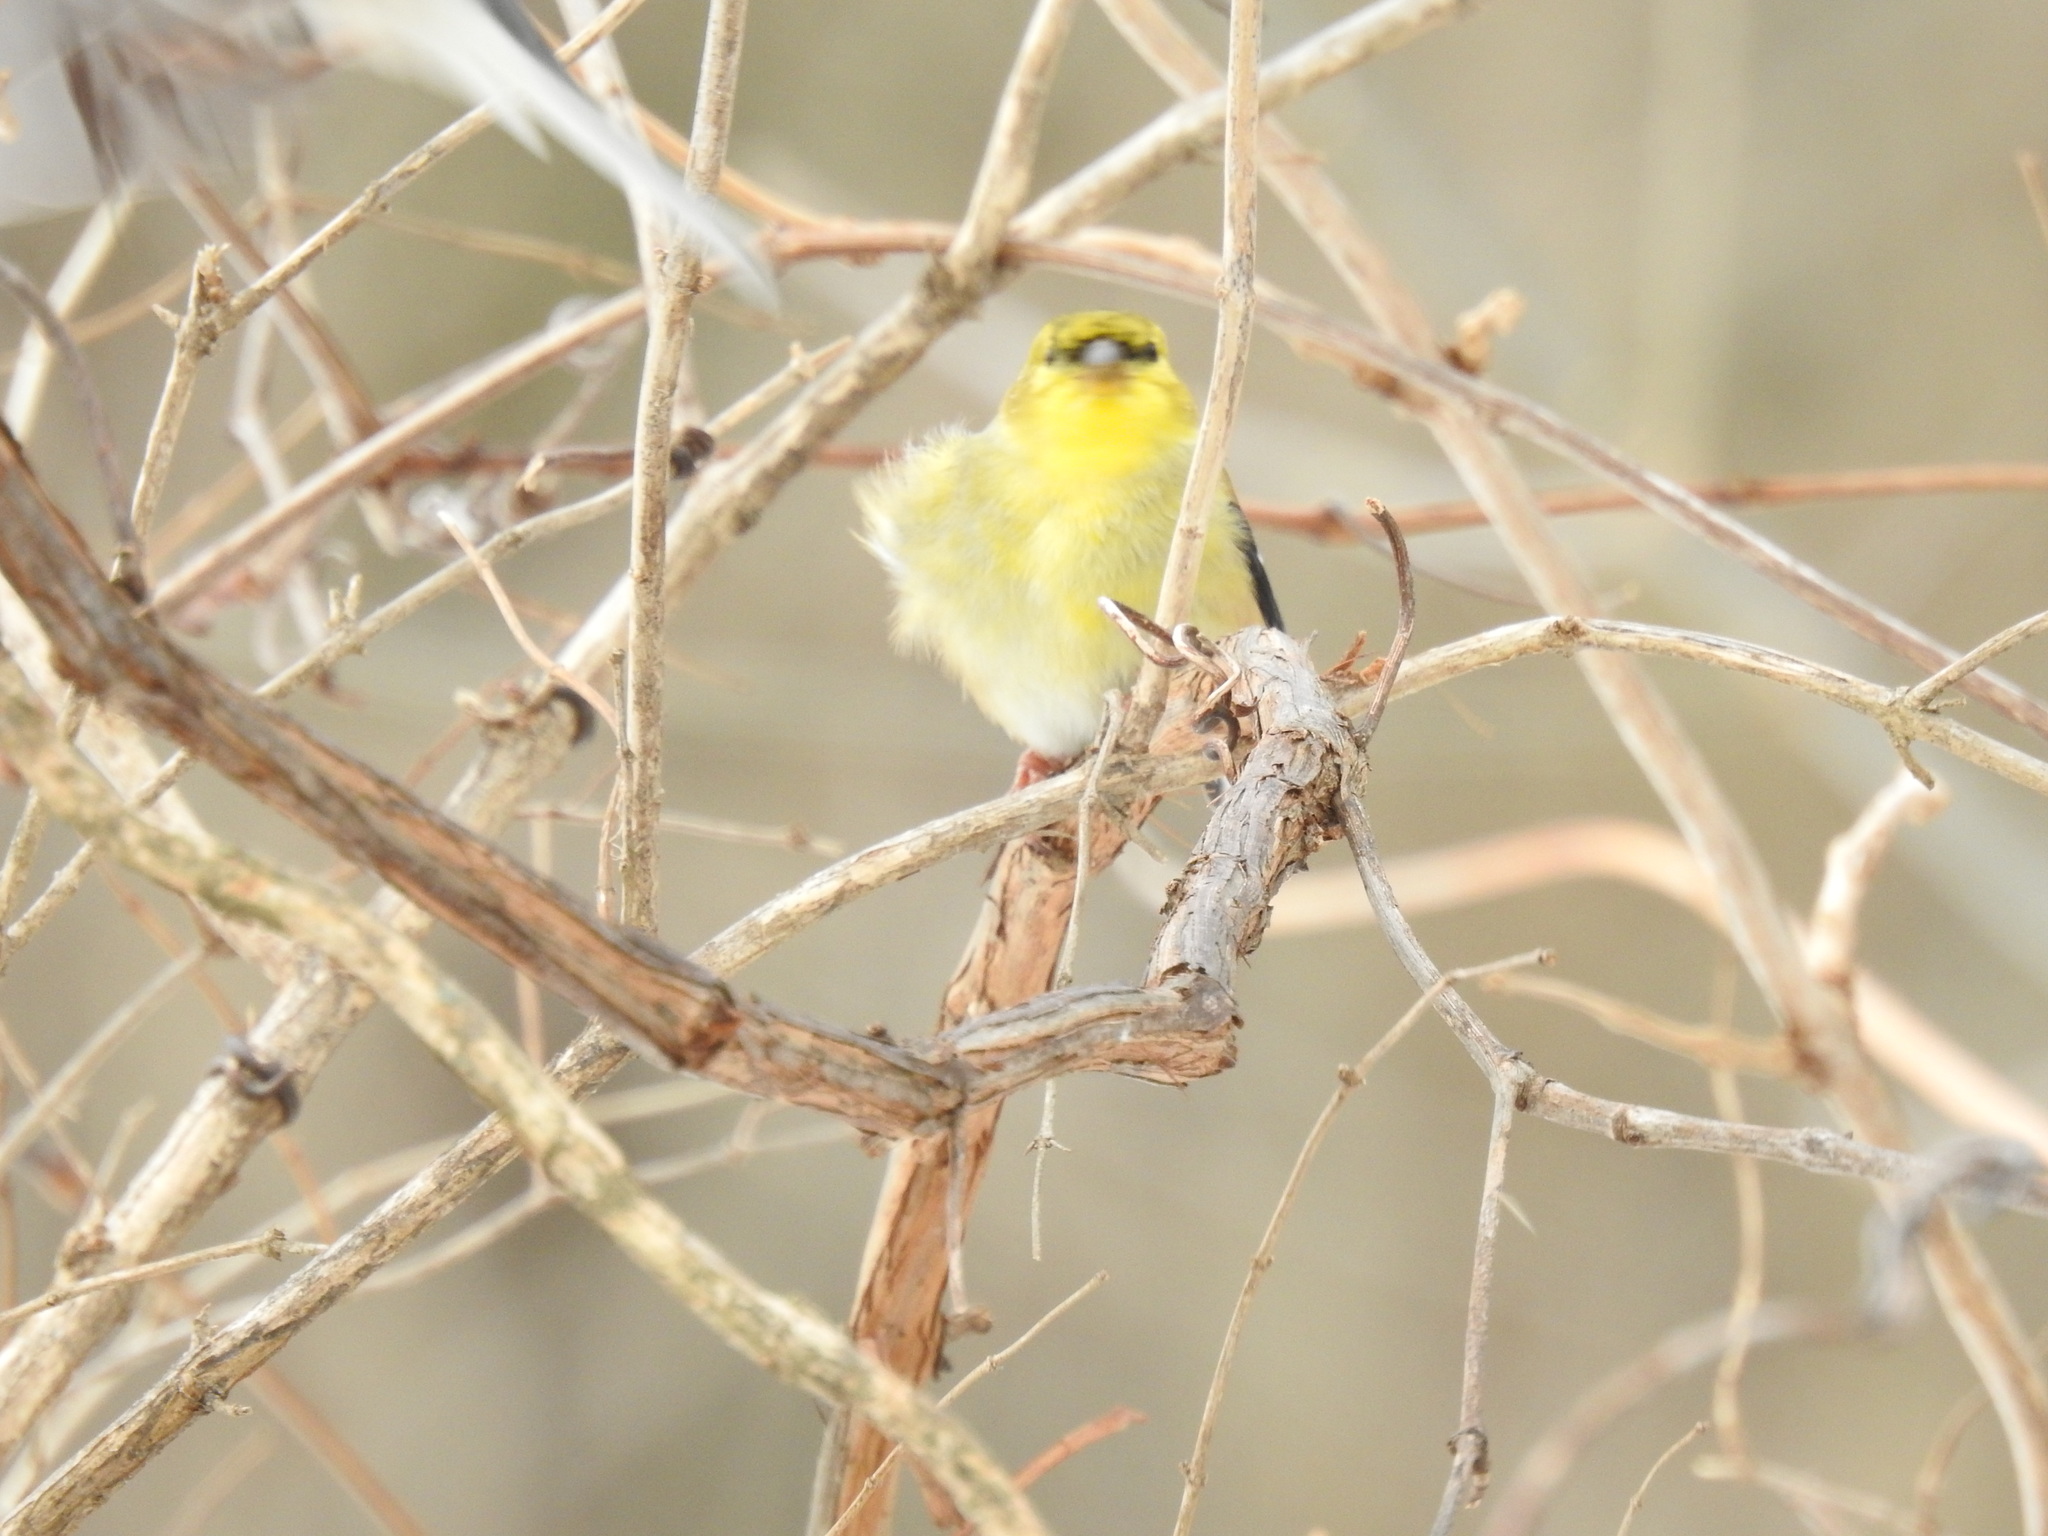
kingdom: Animalia
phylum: Chordata
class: Aves
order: Passeriformes
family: Fringillidae
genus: Spinus
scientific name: Spinus tristis
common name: American goldfinch
